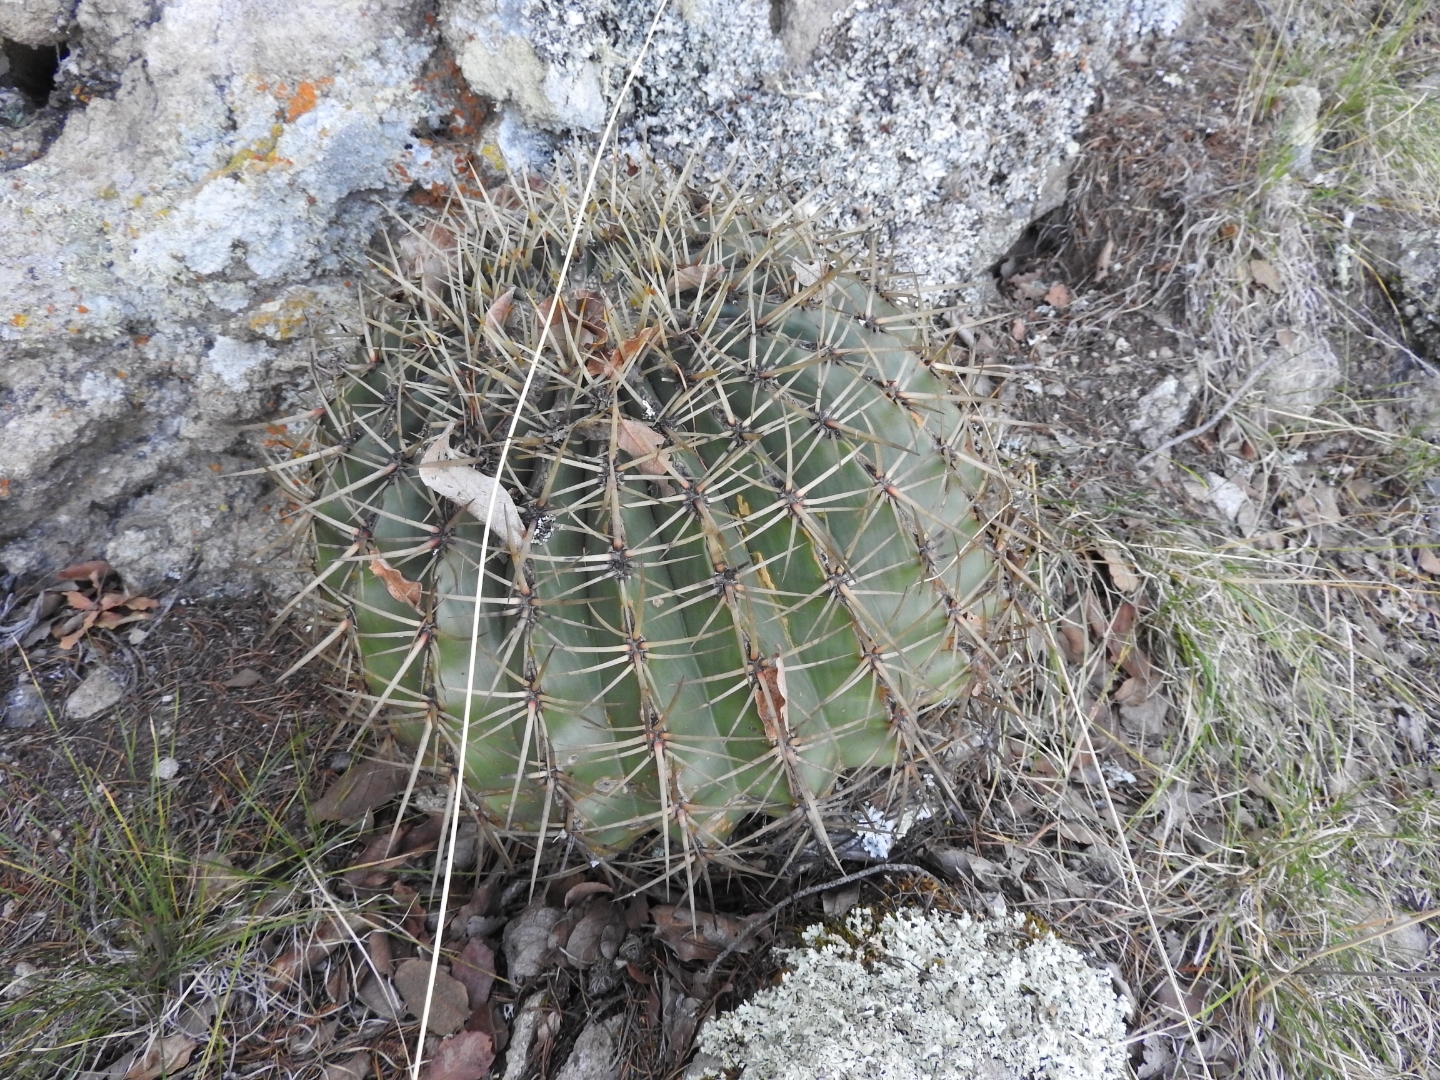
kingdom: Plantae
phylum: Tracheophyta
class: Magnoliopsida
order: Caryophyllales
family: Cactaceae
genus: Bisnaga
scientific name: Bisnaga histrix
